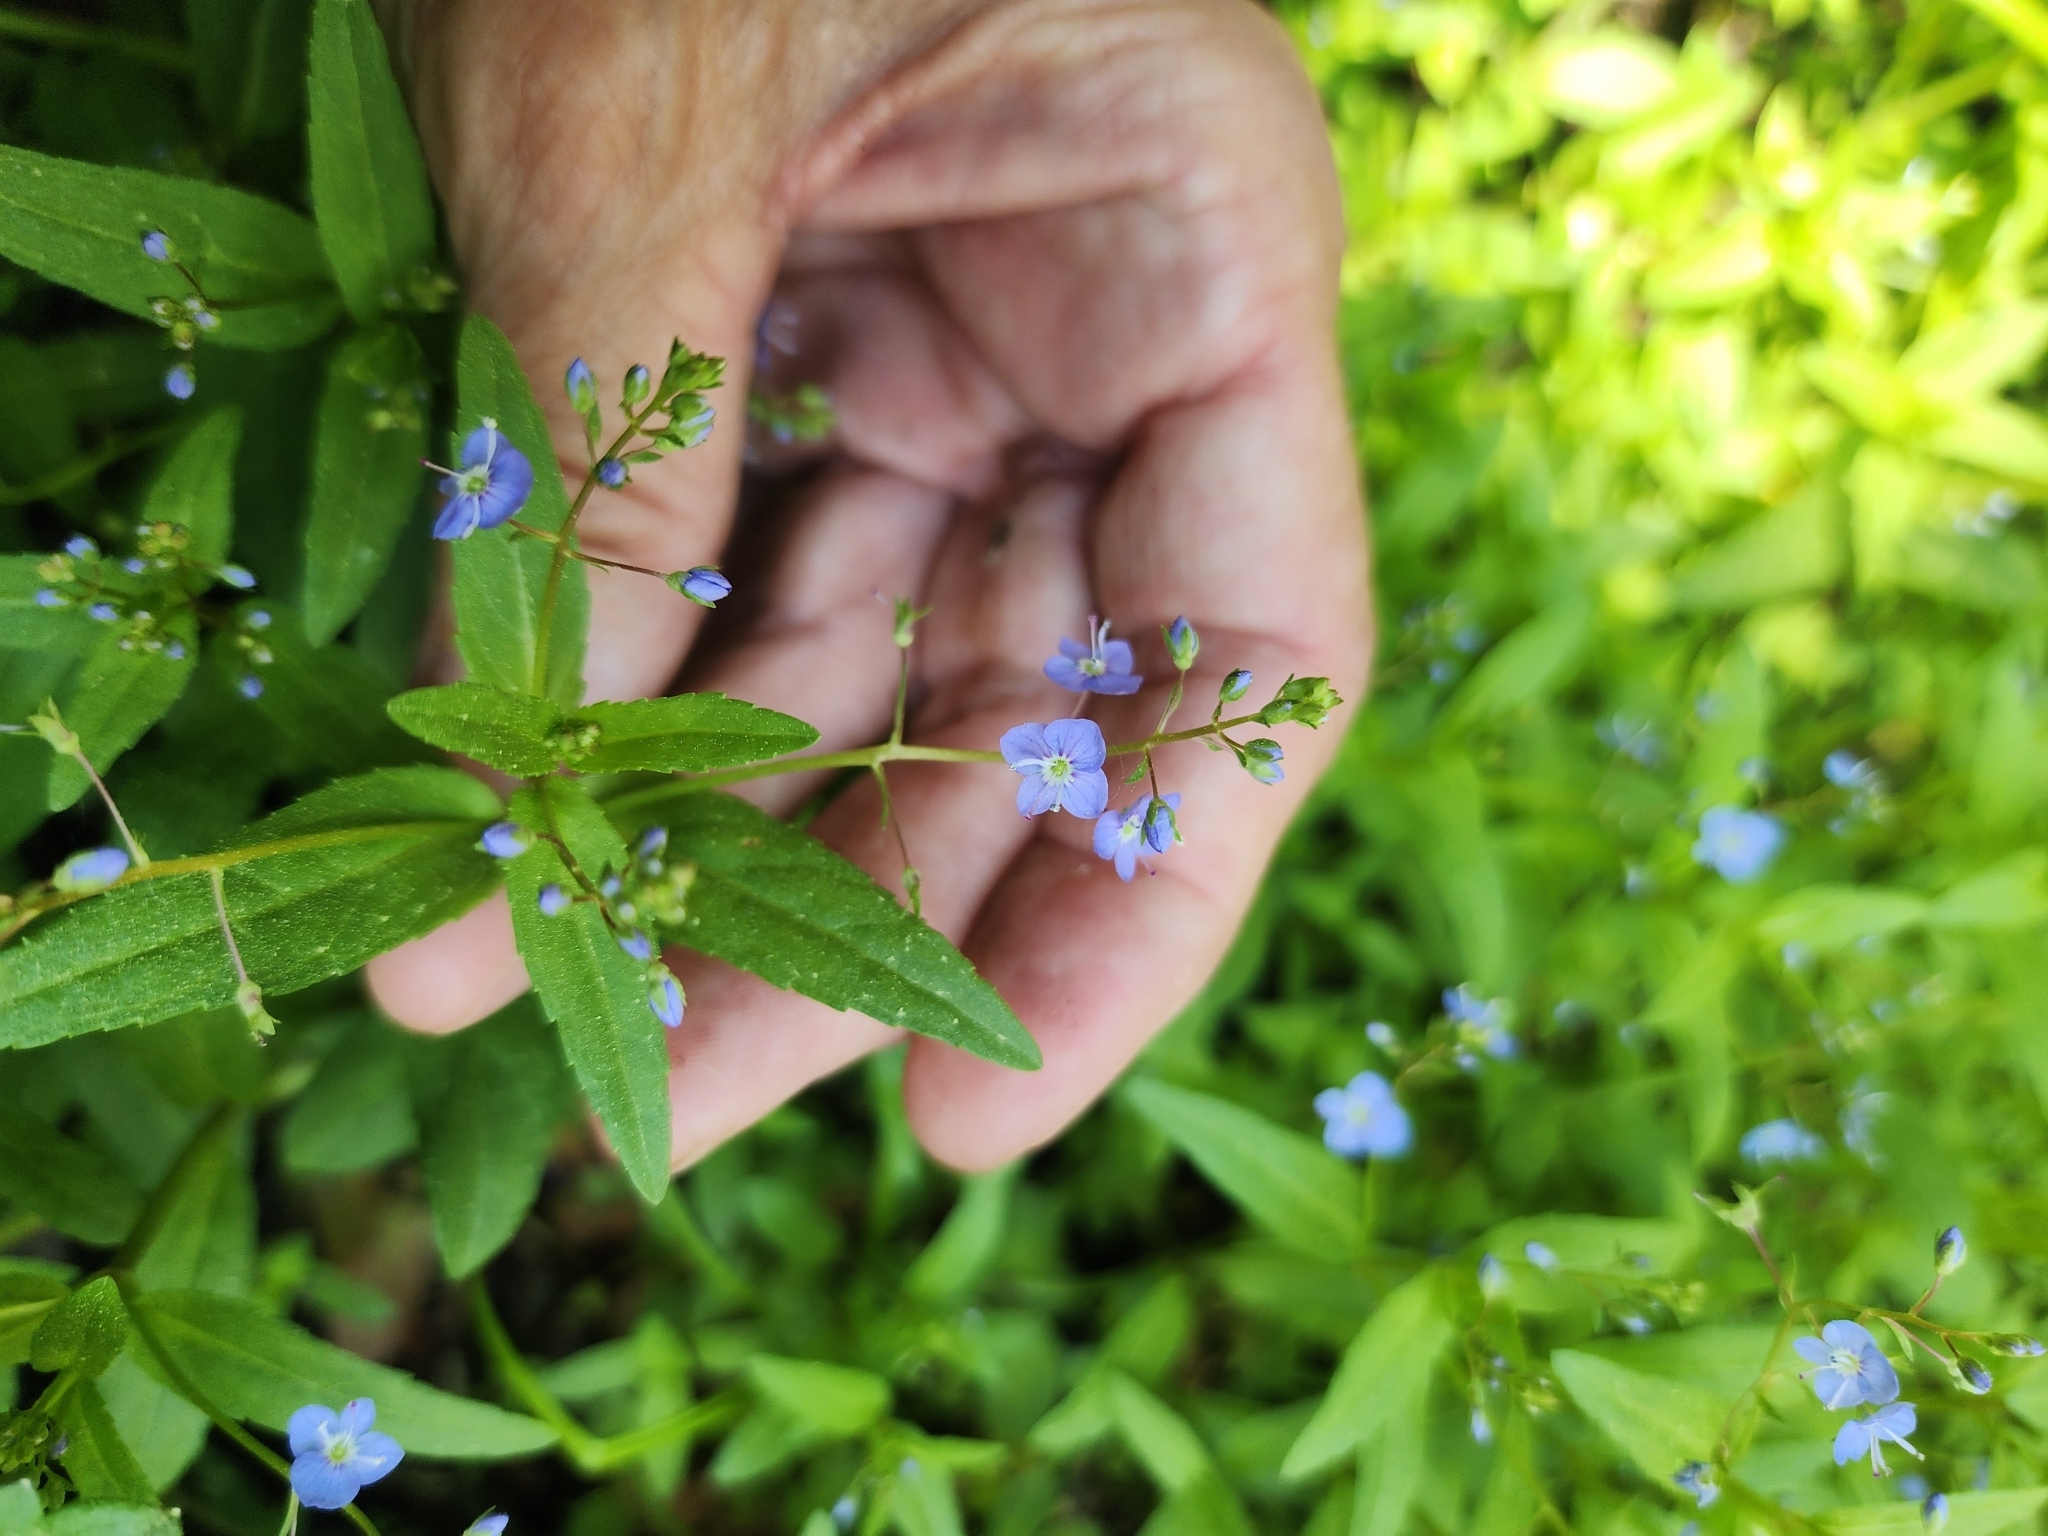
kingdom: Plantae
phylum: Tracheophyta
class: Magnoliopsida
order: Lamiales
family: Plantaginaceae
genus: Veronica
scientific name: Veronica americana
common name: American brooklime
